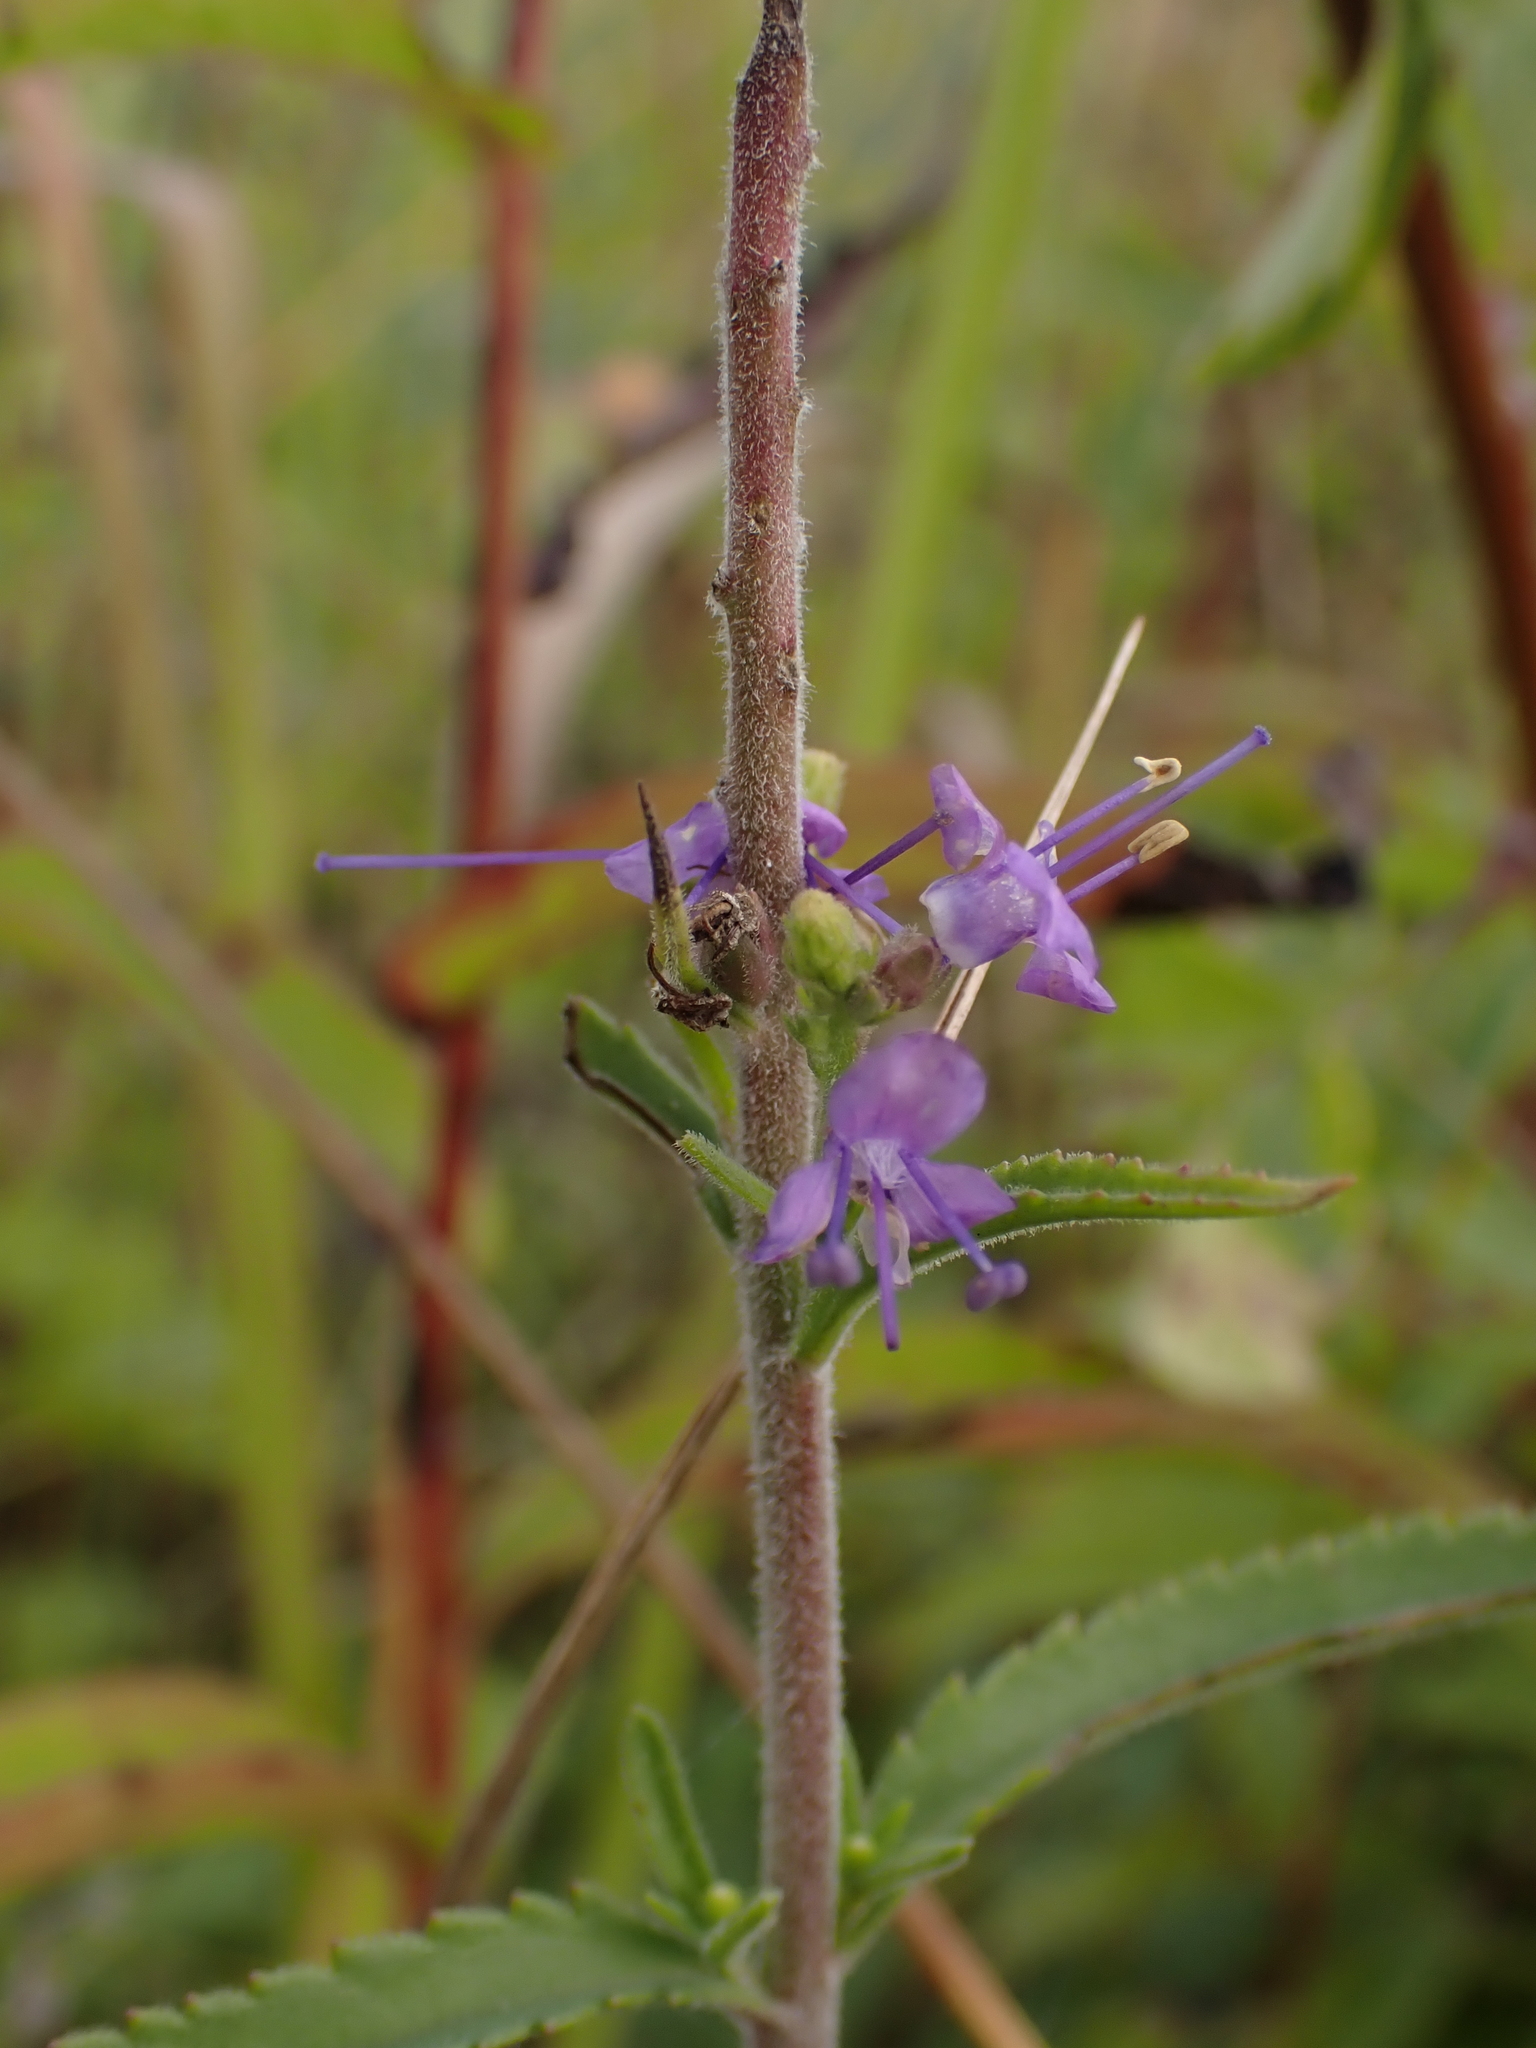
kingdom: Plantae
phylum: Tracheophyta
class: Magnoliopsida
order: Lamiales
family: Plantaginaceae
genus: Veronica
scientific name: Veronica spicata
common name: Spiked speedwell
